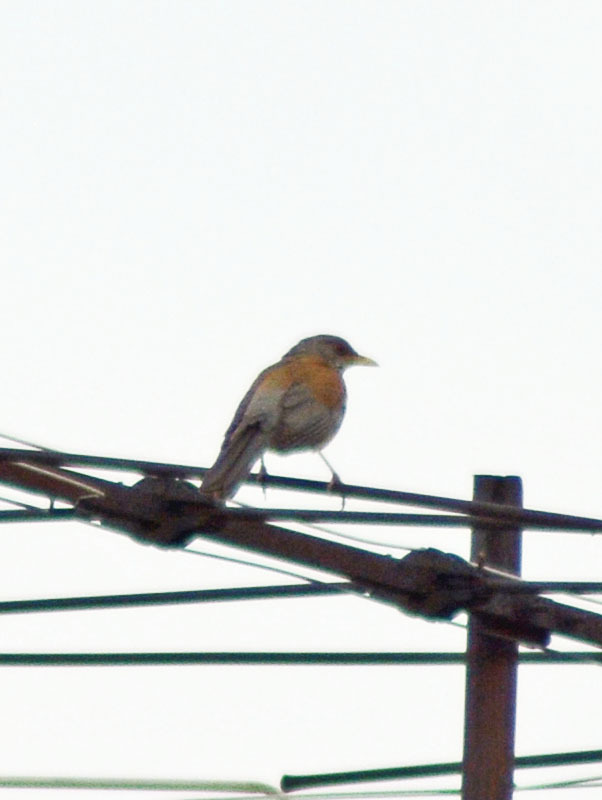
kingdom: Animalia
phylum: Chordata
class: Aves
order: Passeriformes
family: Turdidae
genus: Turdus
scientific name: Turdus rufopalliatus
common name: Rufous-backed robin
